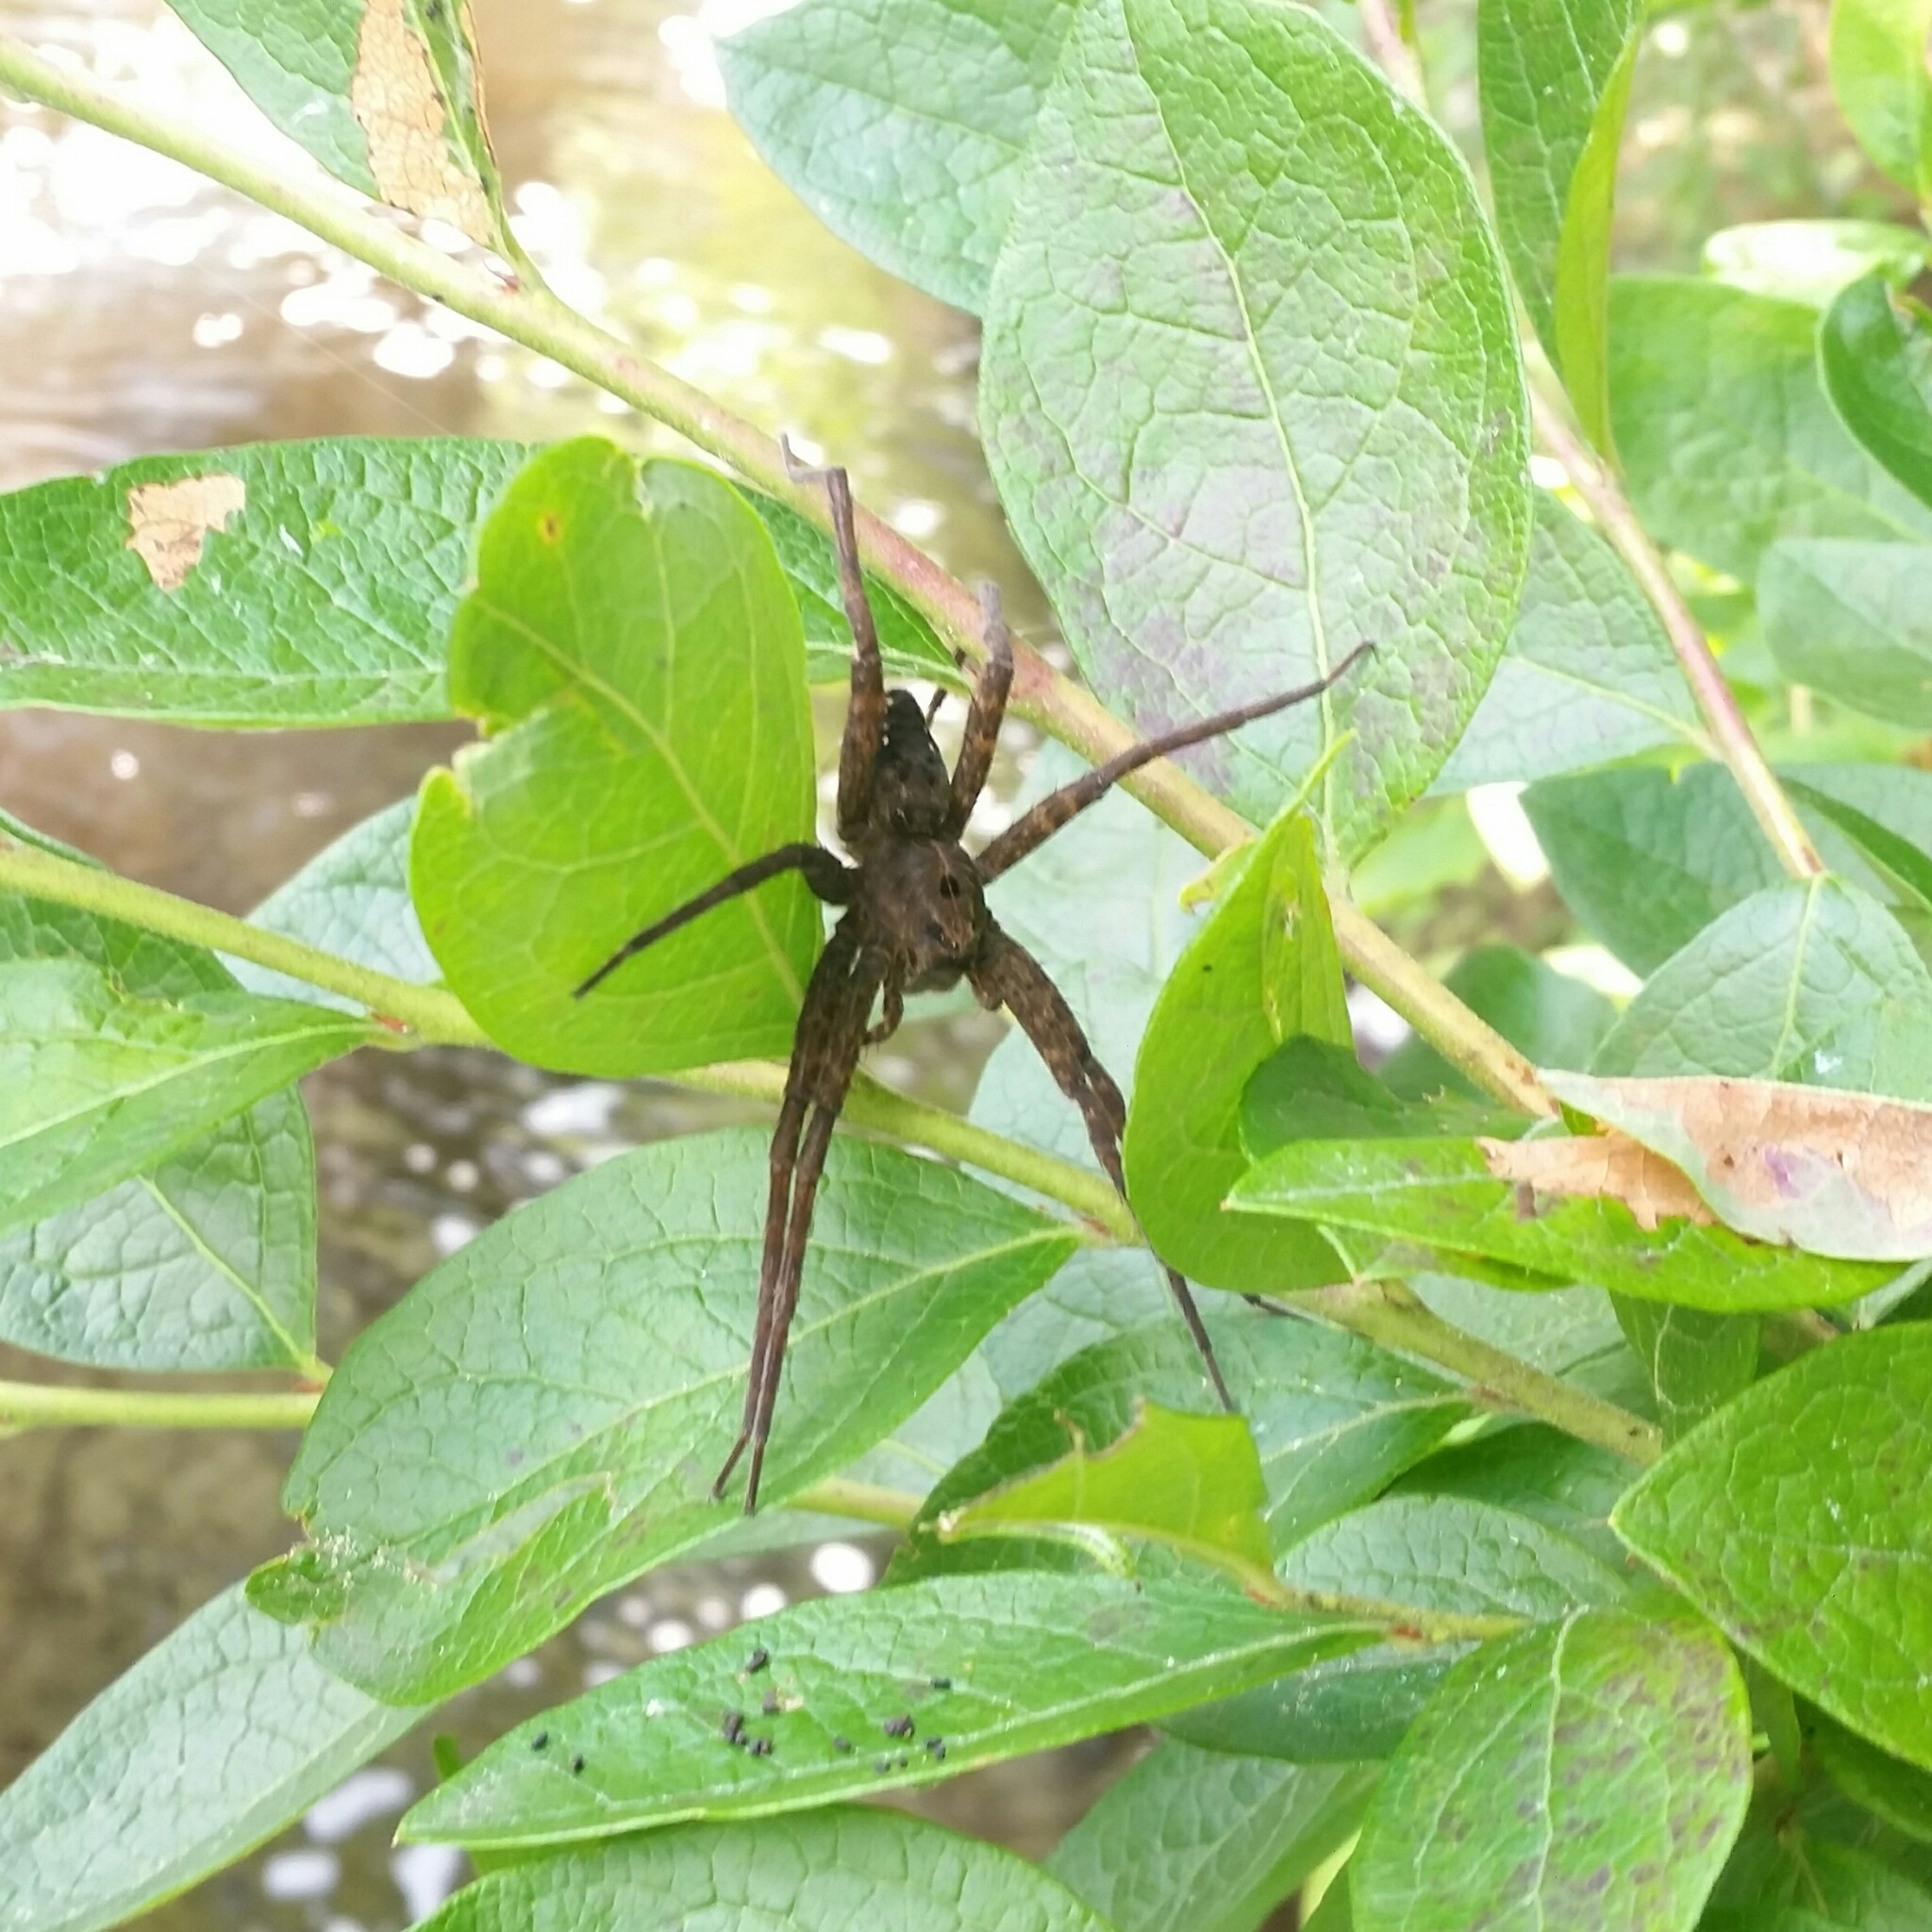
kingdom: Animalia
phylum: Arthropoda
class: Arachnida
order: Araneae
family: Pisauridae
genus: Dolomedes
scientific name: Dolomedes vittatus
